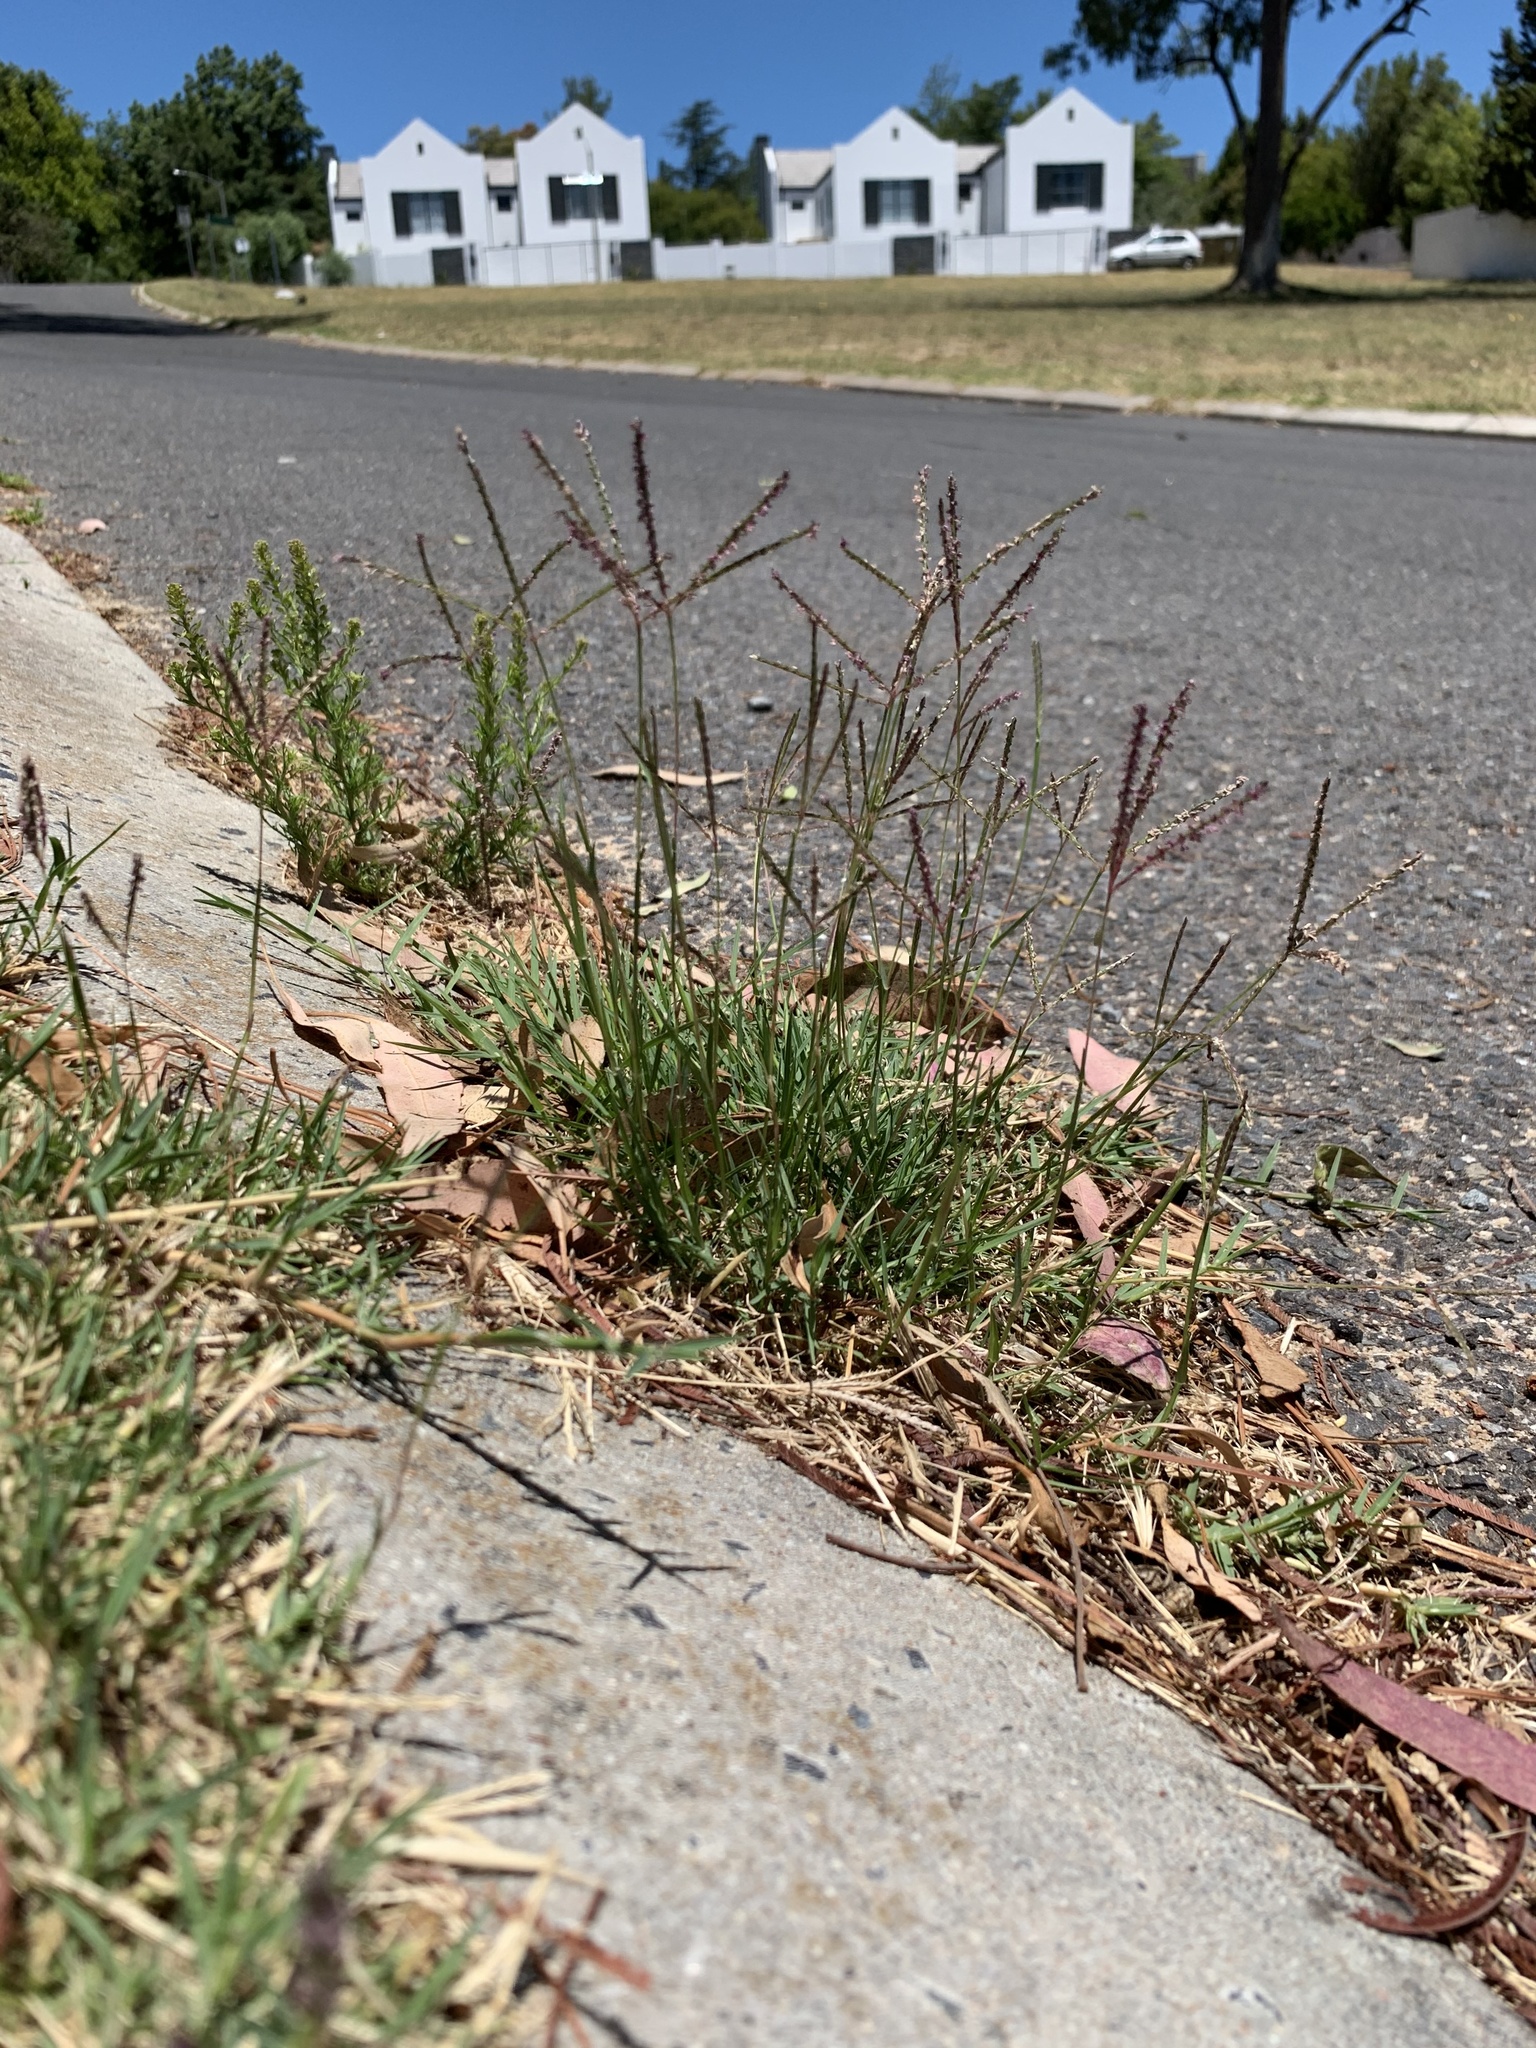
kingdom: Plantae
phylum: Tracheophyta
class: Liliopsida
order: Poales
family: Poaceae
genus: Cynodon
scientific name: Cynodon dactylon
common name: Bermuda grass
